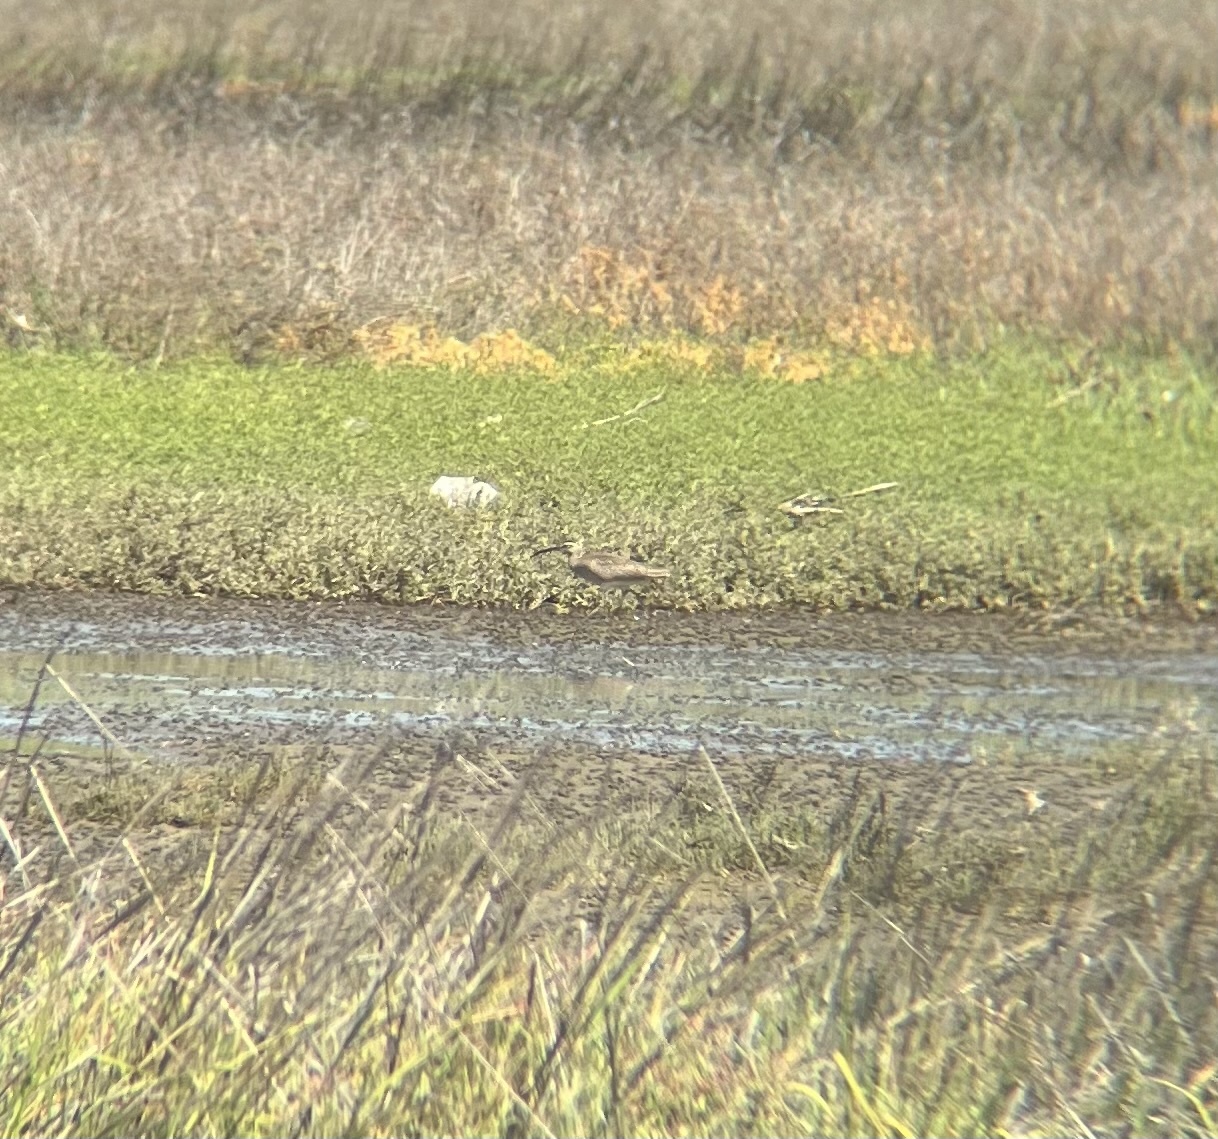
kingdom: Animalia
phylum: Chordata
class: Aves
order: Charadriiformes
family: Scolopacidae
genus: Numenius
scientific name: Numenius phaeopus
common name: Whimbrel
